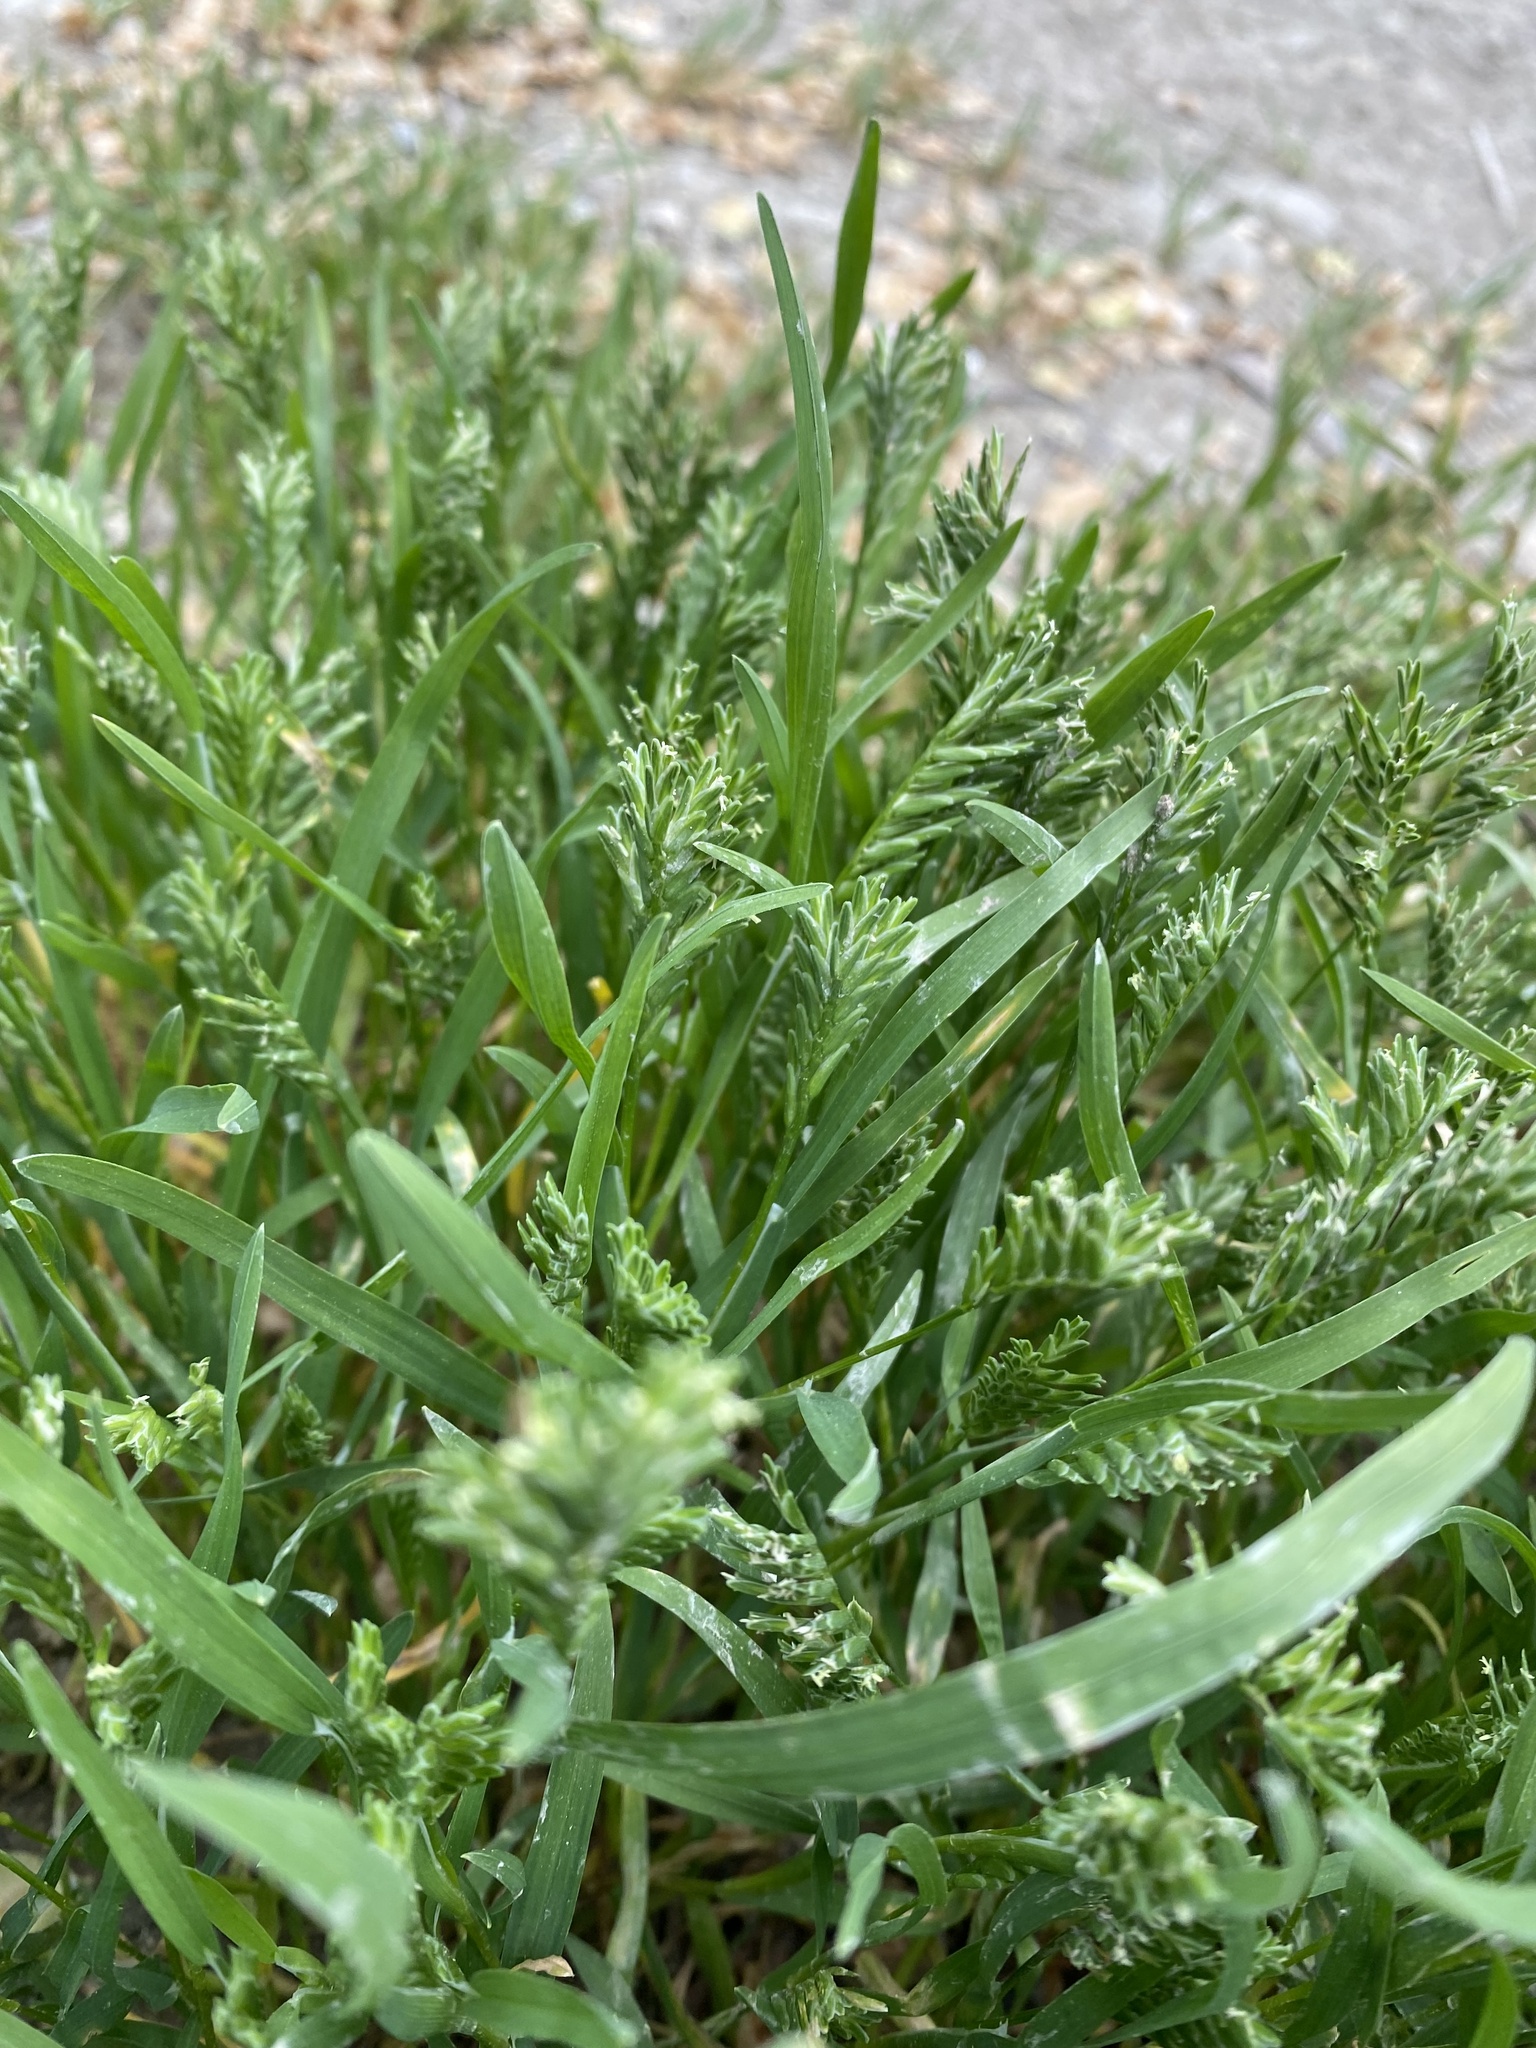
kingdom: Plantae
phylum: Tracheophyta
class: Liliopsida
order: Poales
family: Poaceae
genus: Sclerochloa
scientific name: Sclerochloa dura
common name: Common hardgrass
